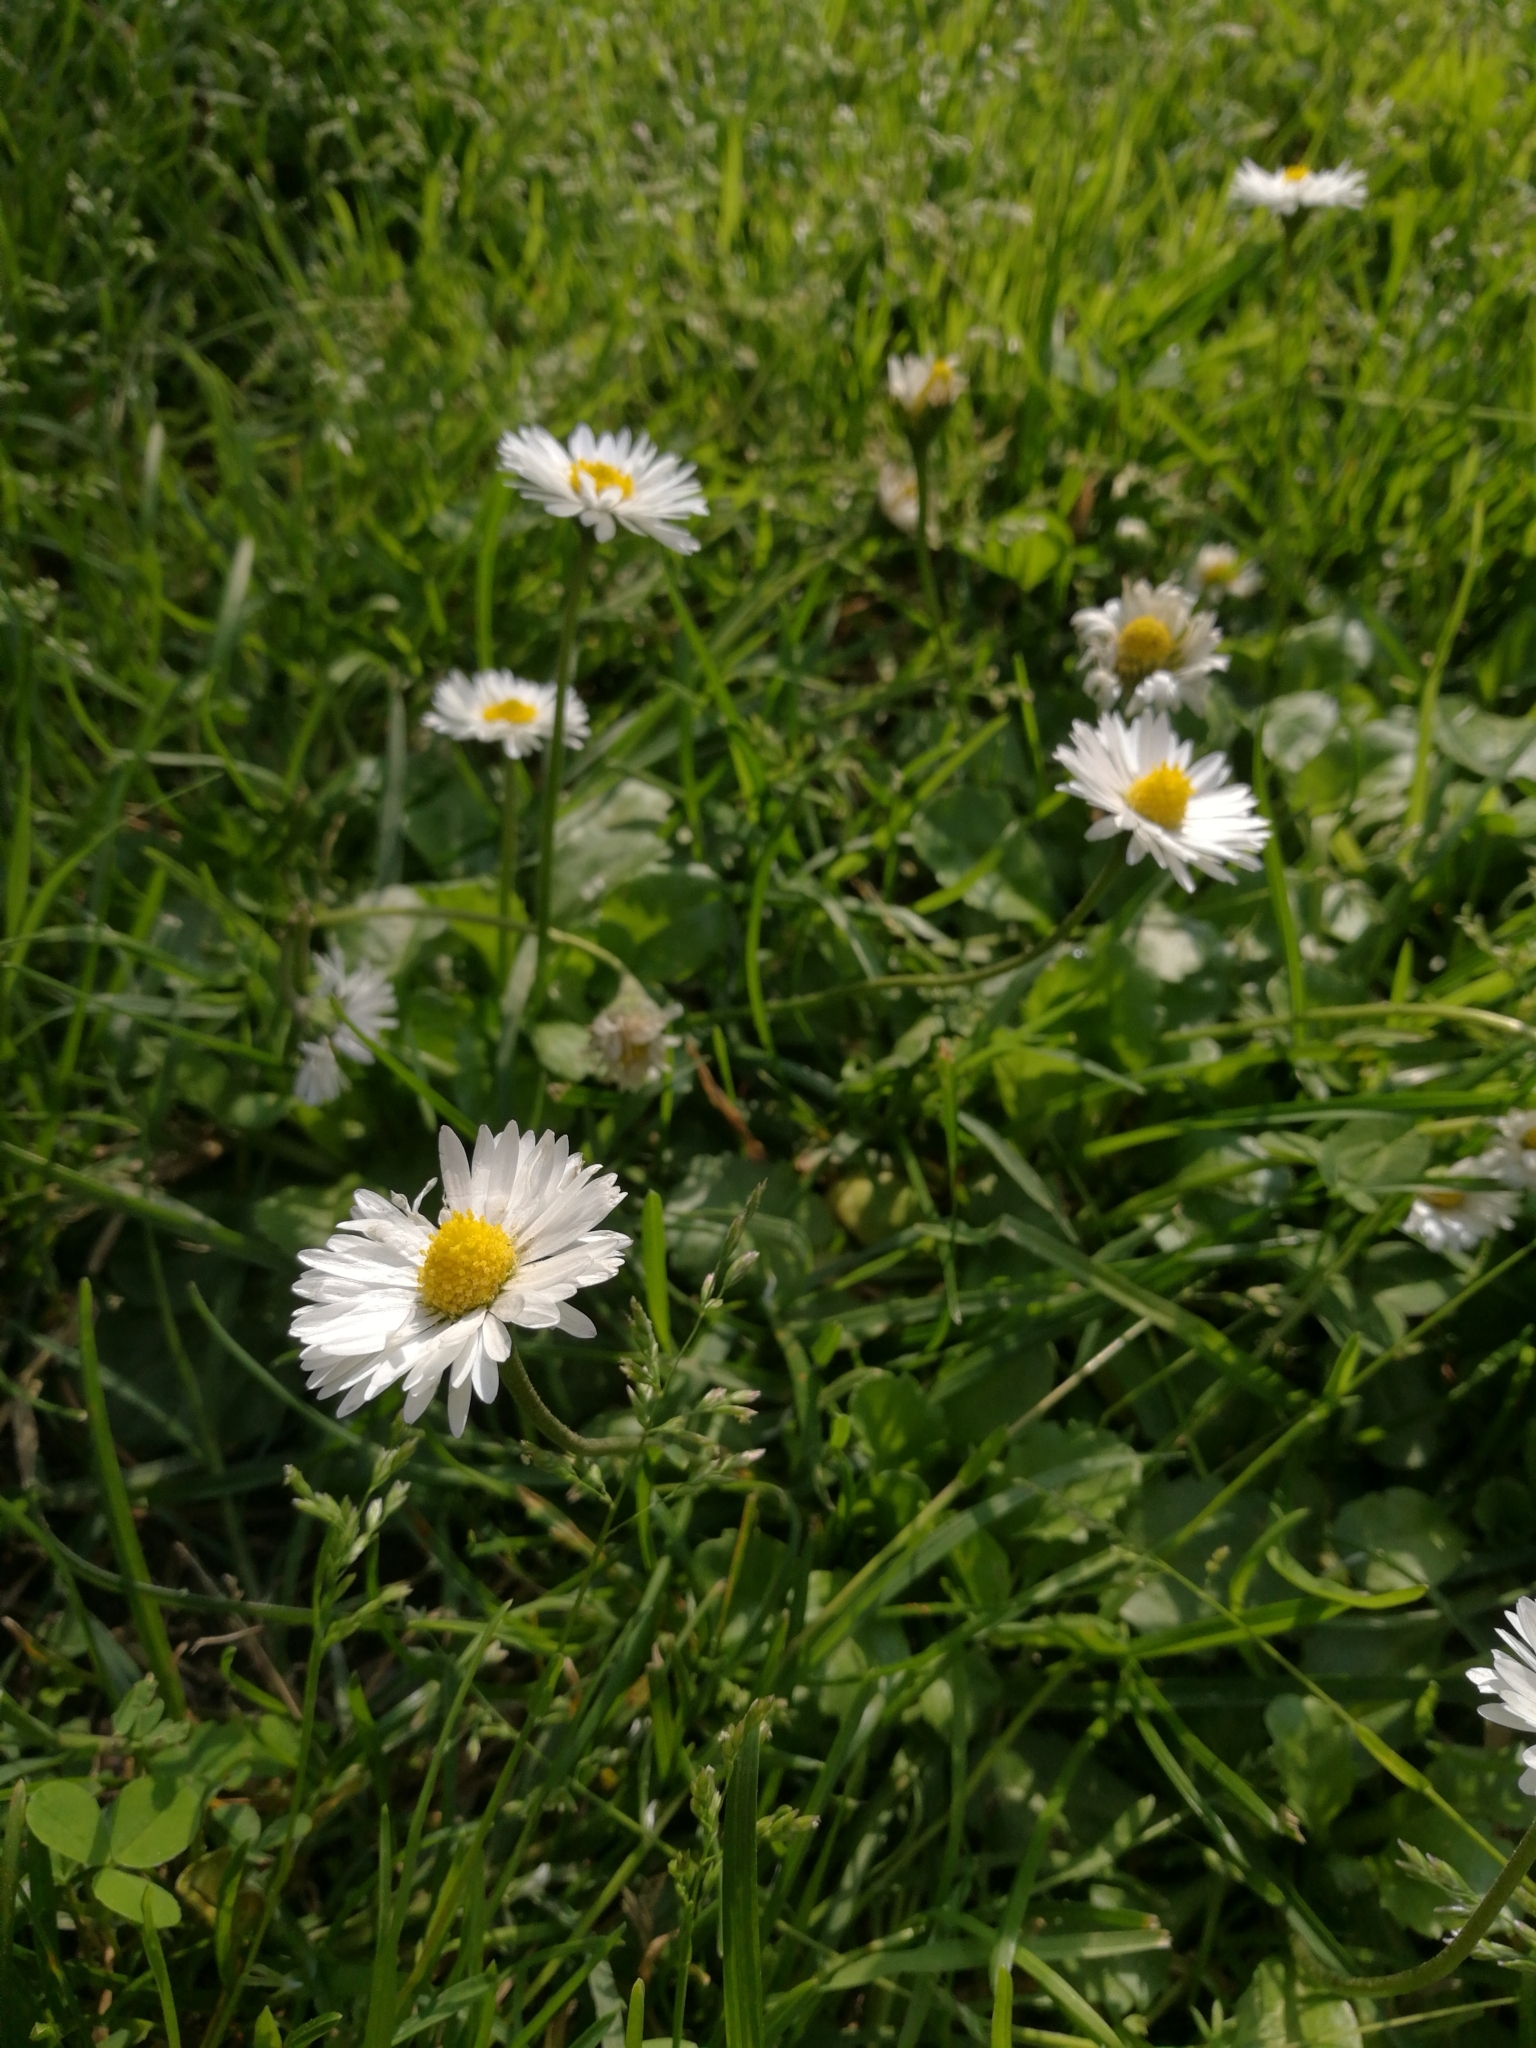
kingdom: Plantae
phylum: Tracheophyta
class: Magnoliopsida
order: Asterales
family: Asteraceae
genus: Bellis
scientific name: Bellis perennis
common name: Lawndaisy
